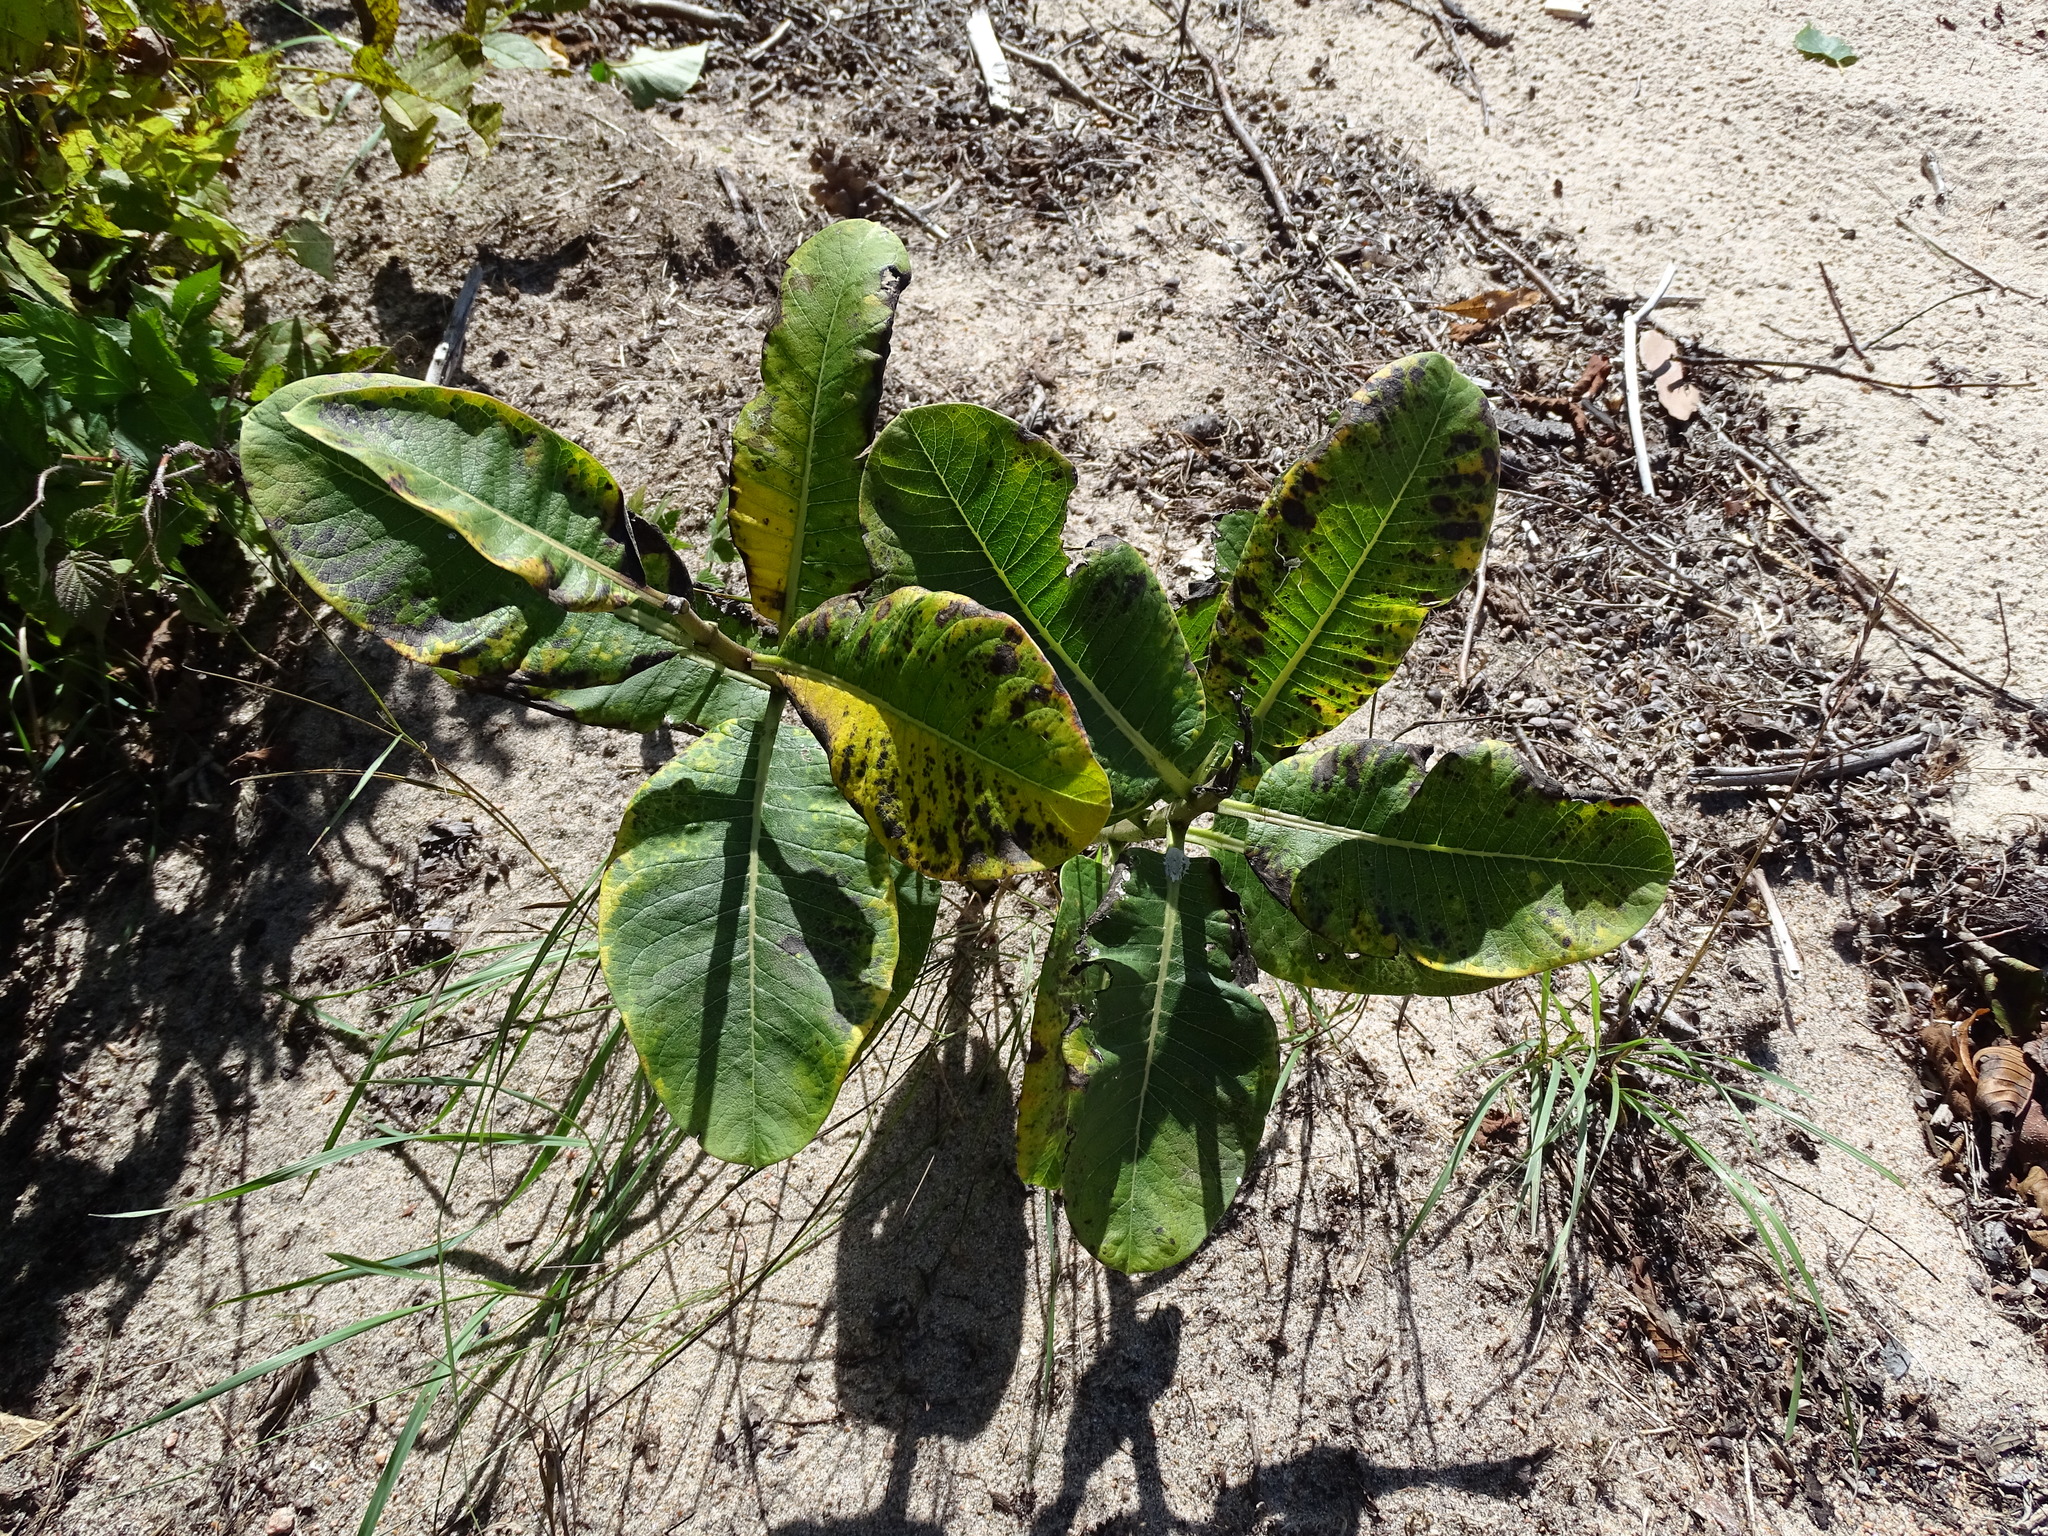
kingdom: Plantae
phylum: Tracheophyta
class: Magnoliopsida
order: Gentianales
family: Apocynaceae
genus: Asclepias
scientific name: Asclepias syriaca
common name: Common milkweed
